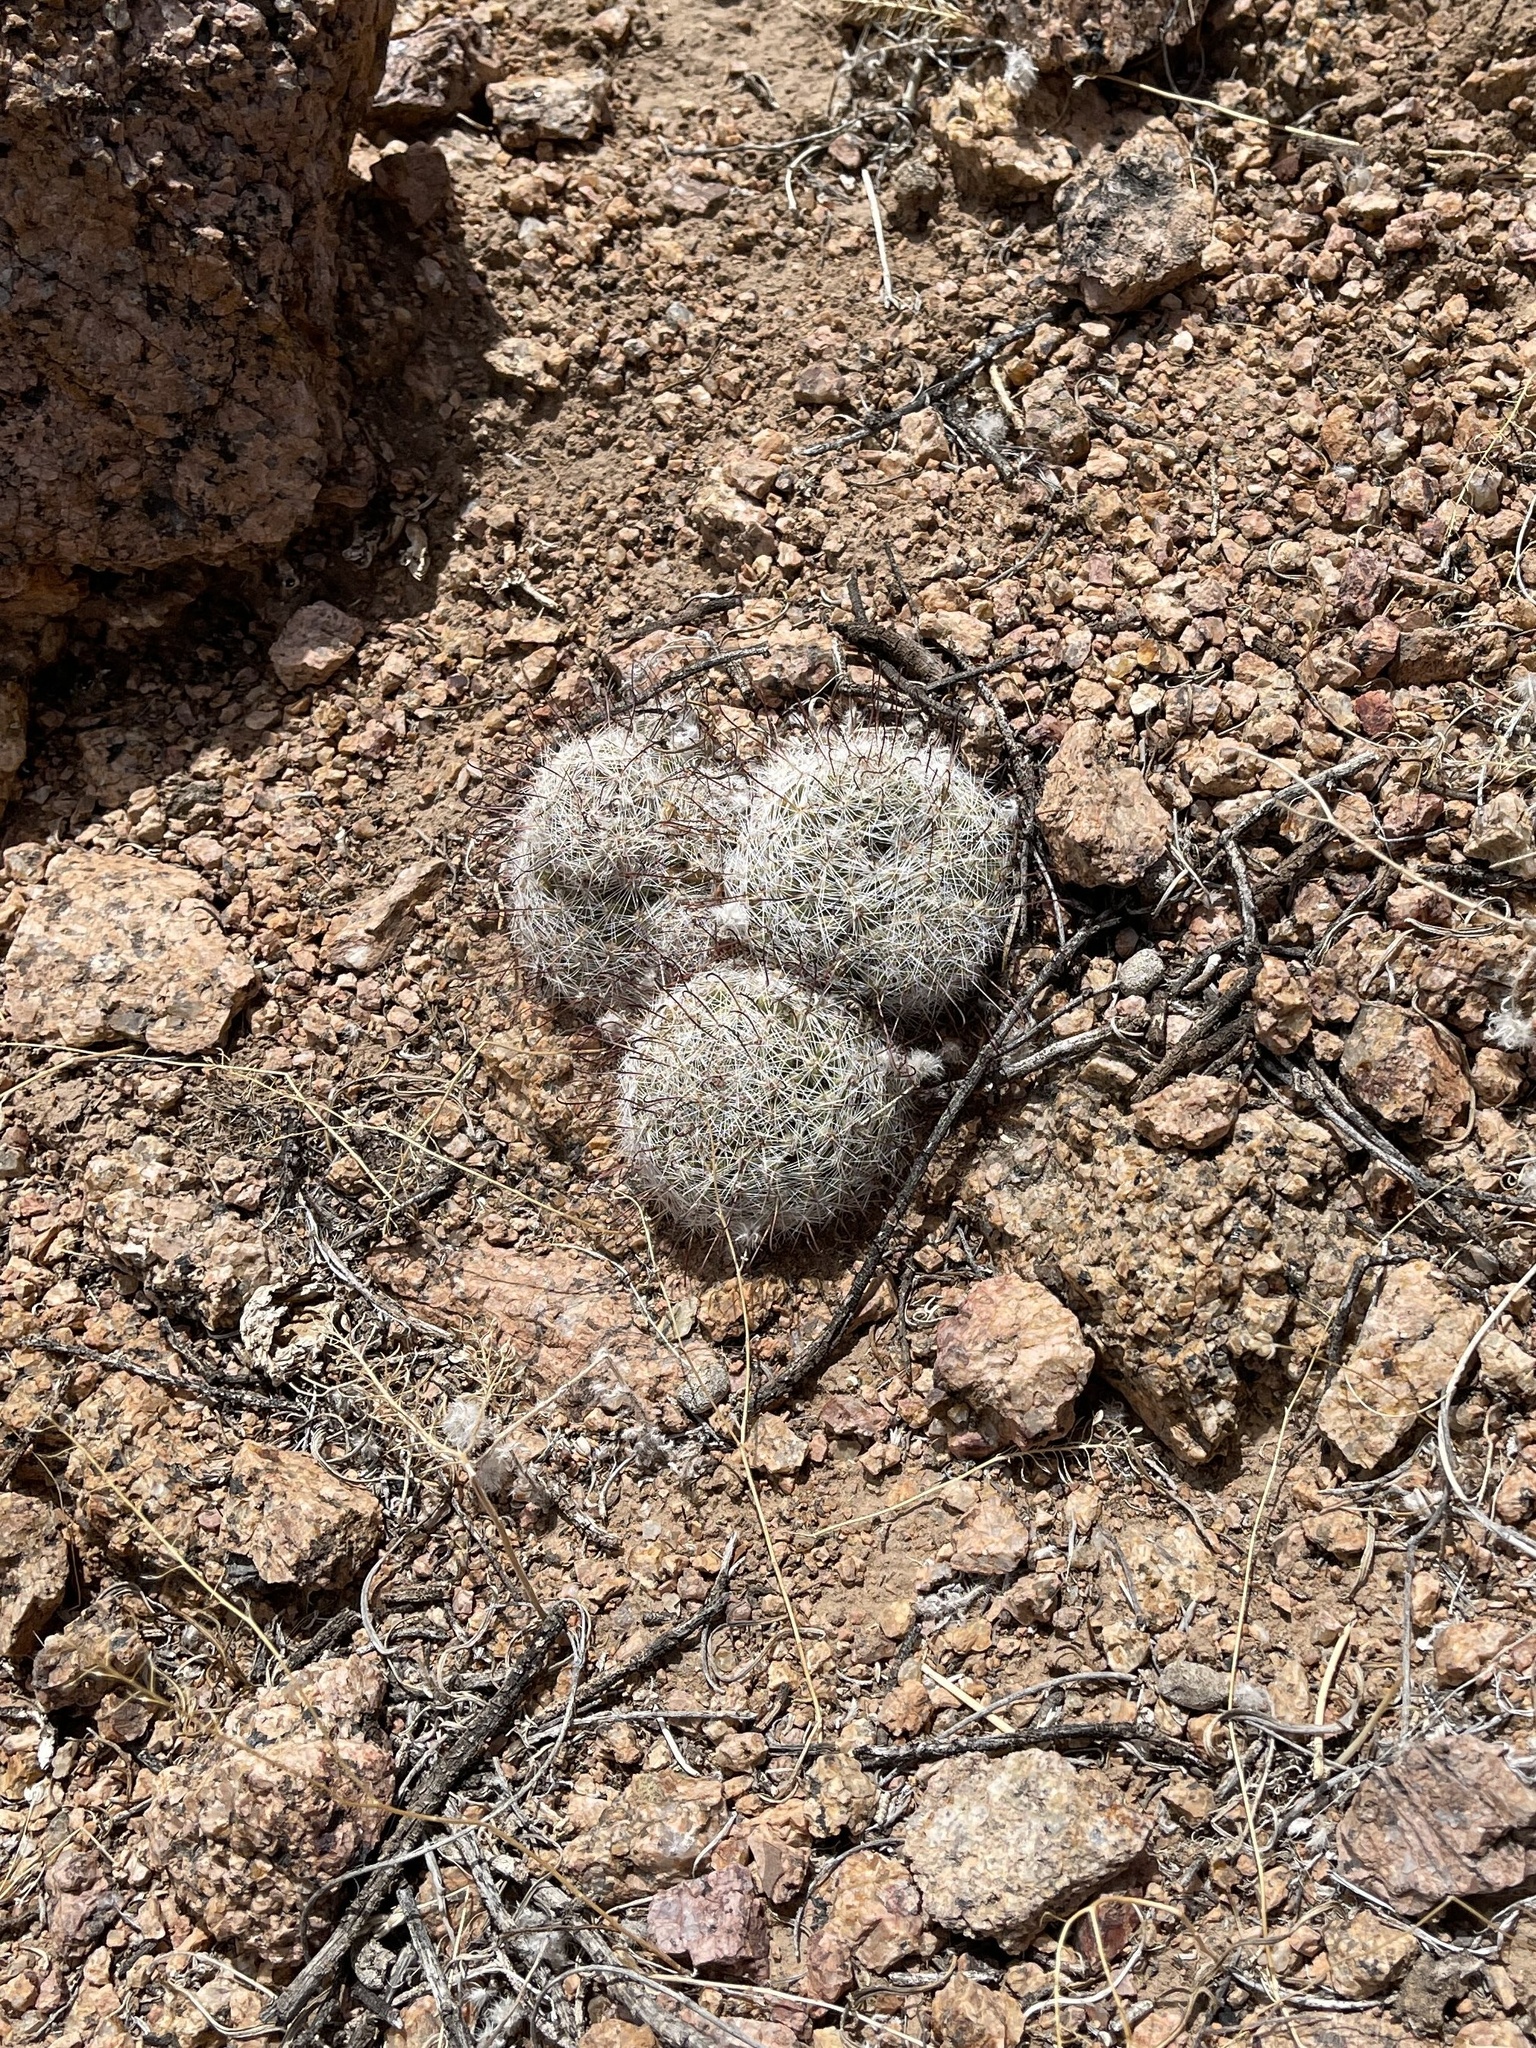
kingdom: Plantae
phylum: Tracheophyta
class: Magnoliopsida
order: Caryophyllales
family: Cactaceae
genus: Cochemiea
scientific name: Cochemiea grahamii
